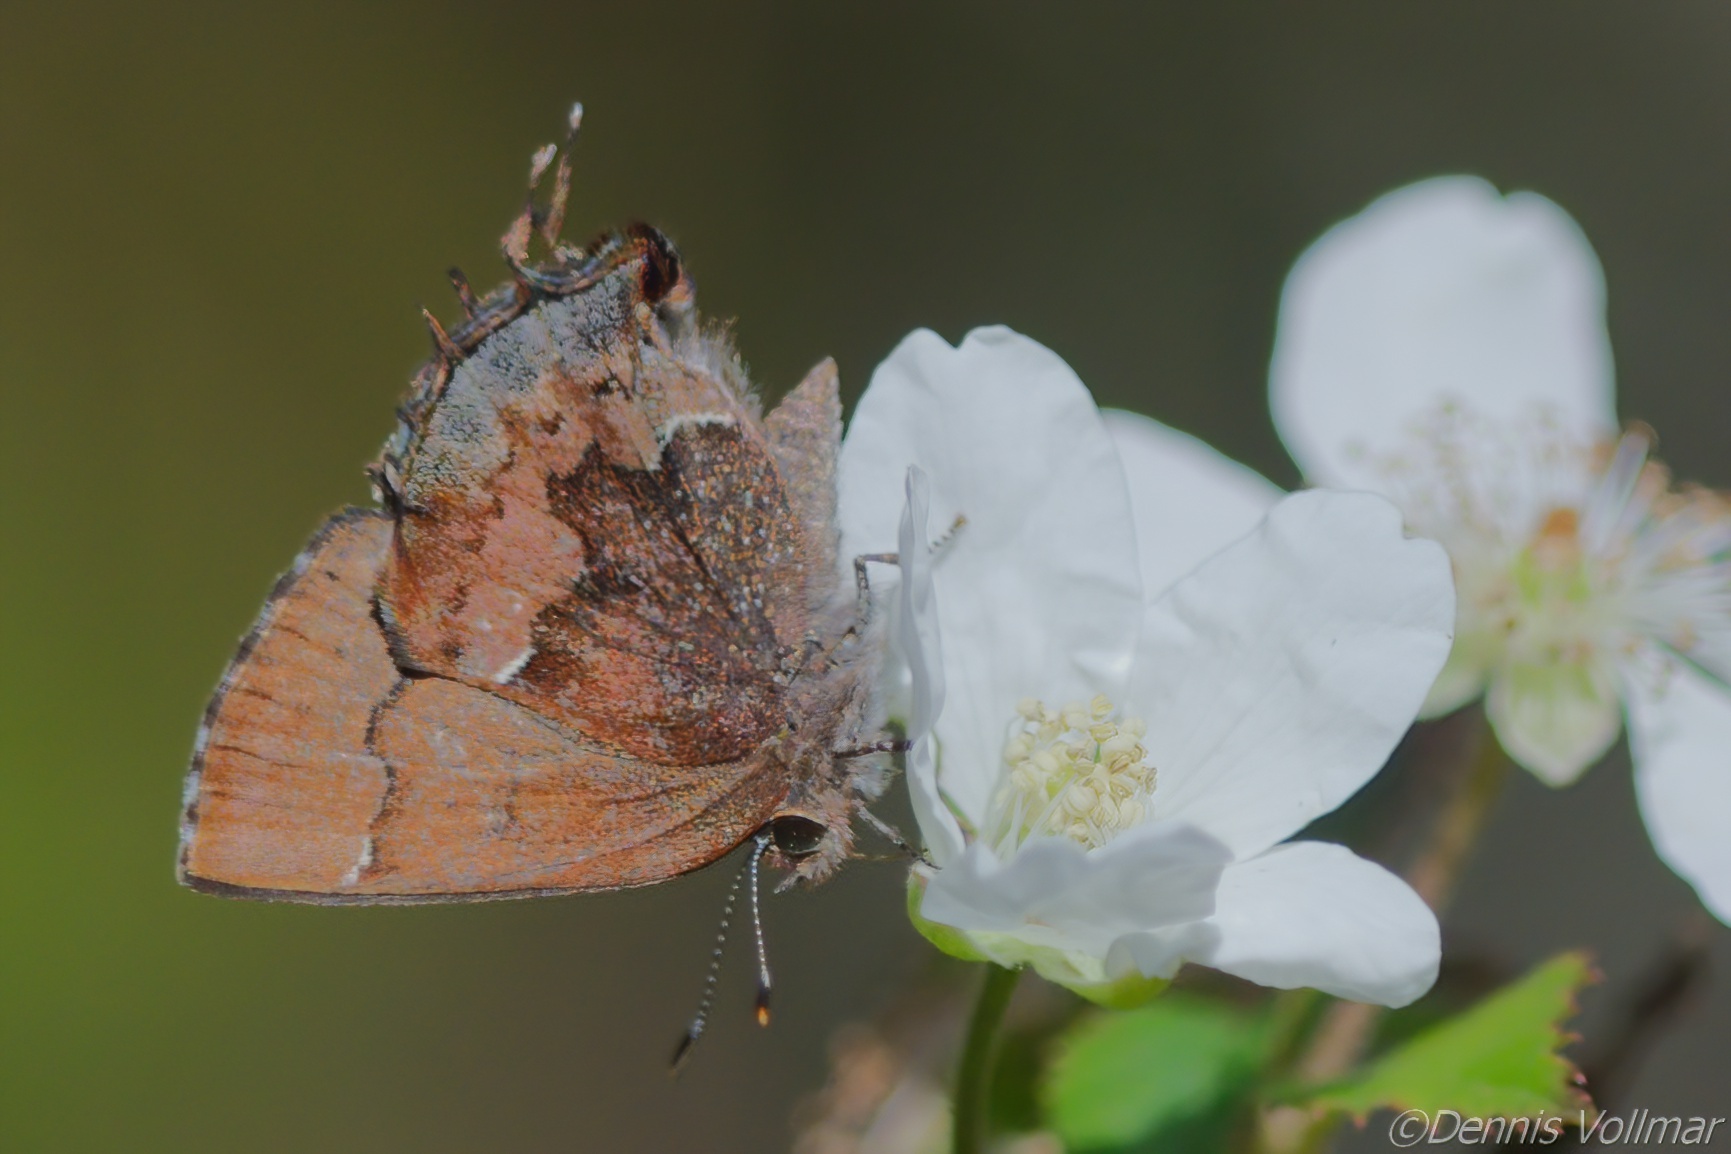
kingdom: Animalia
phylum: Arthropoda
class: Insecta
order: Lepidoptera
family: Lycaenidae
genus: Incisalia
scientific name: Incisalia henrici
